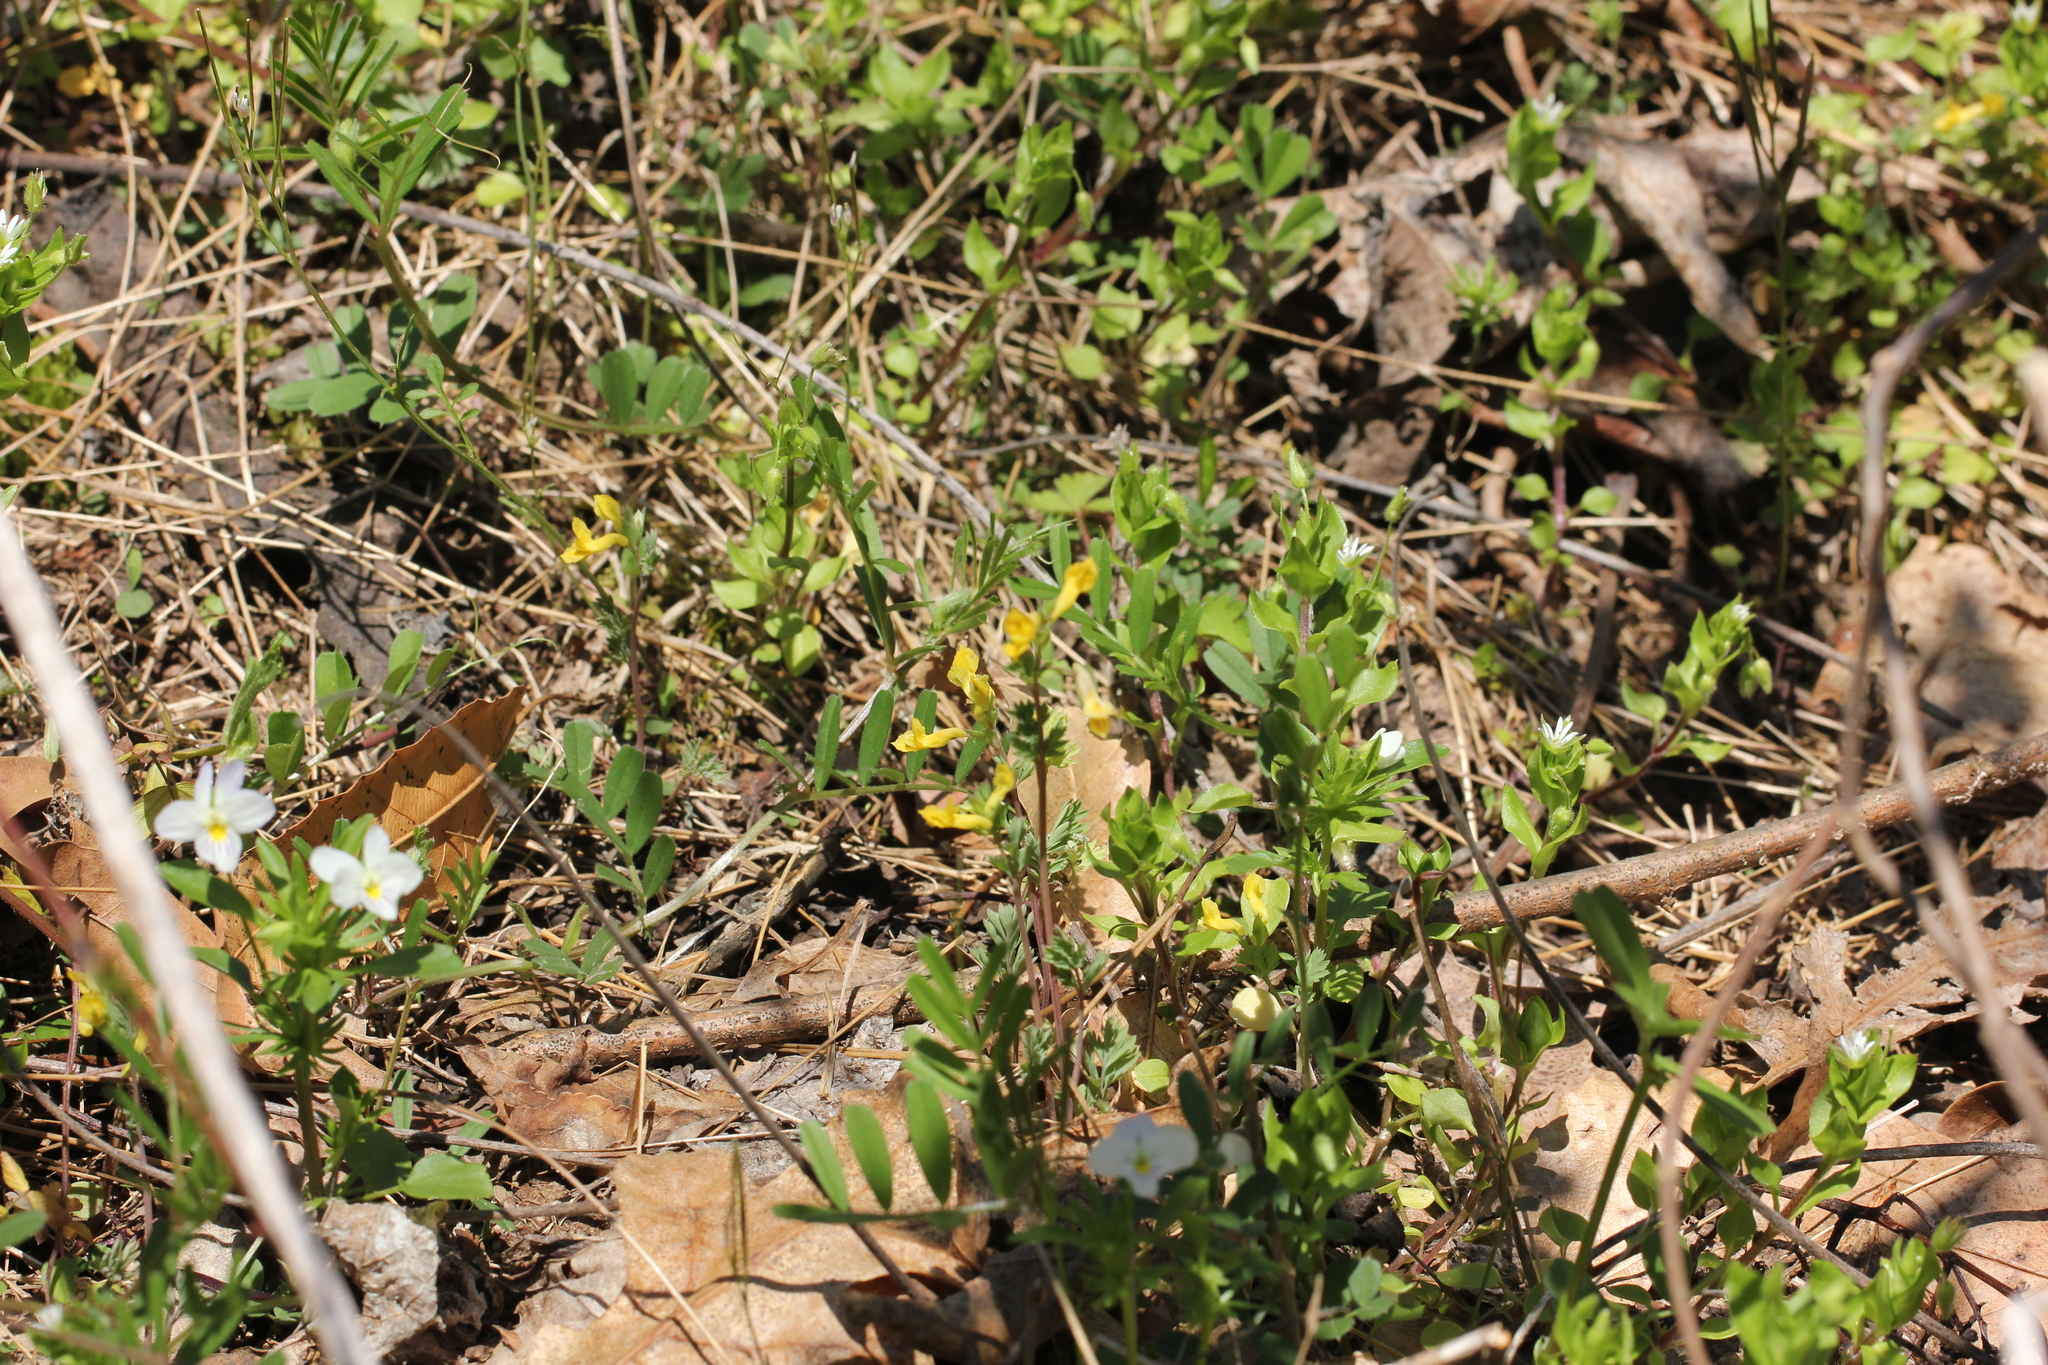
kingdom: Plantae
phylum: Tracheophyta
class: Magnoliopsida
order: Ranunculales
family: Papaveraceae
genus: Corydalis
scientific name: Corydalis flavula
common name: Yellow corydalis
